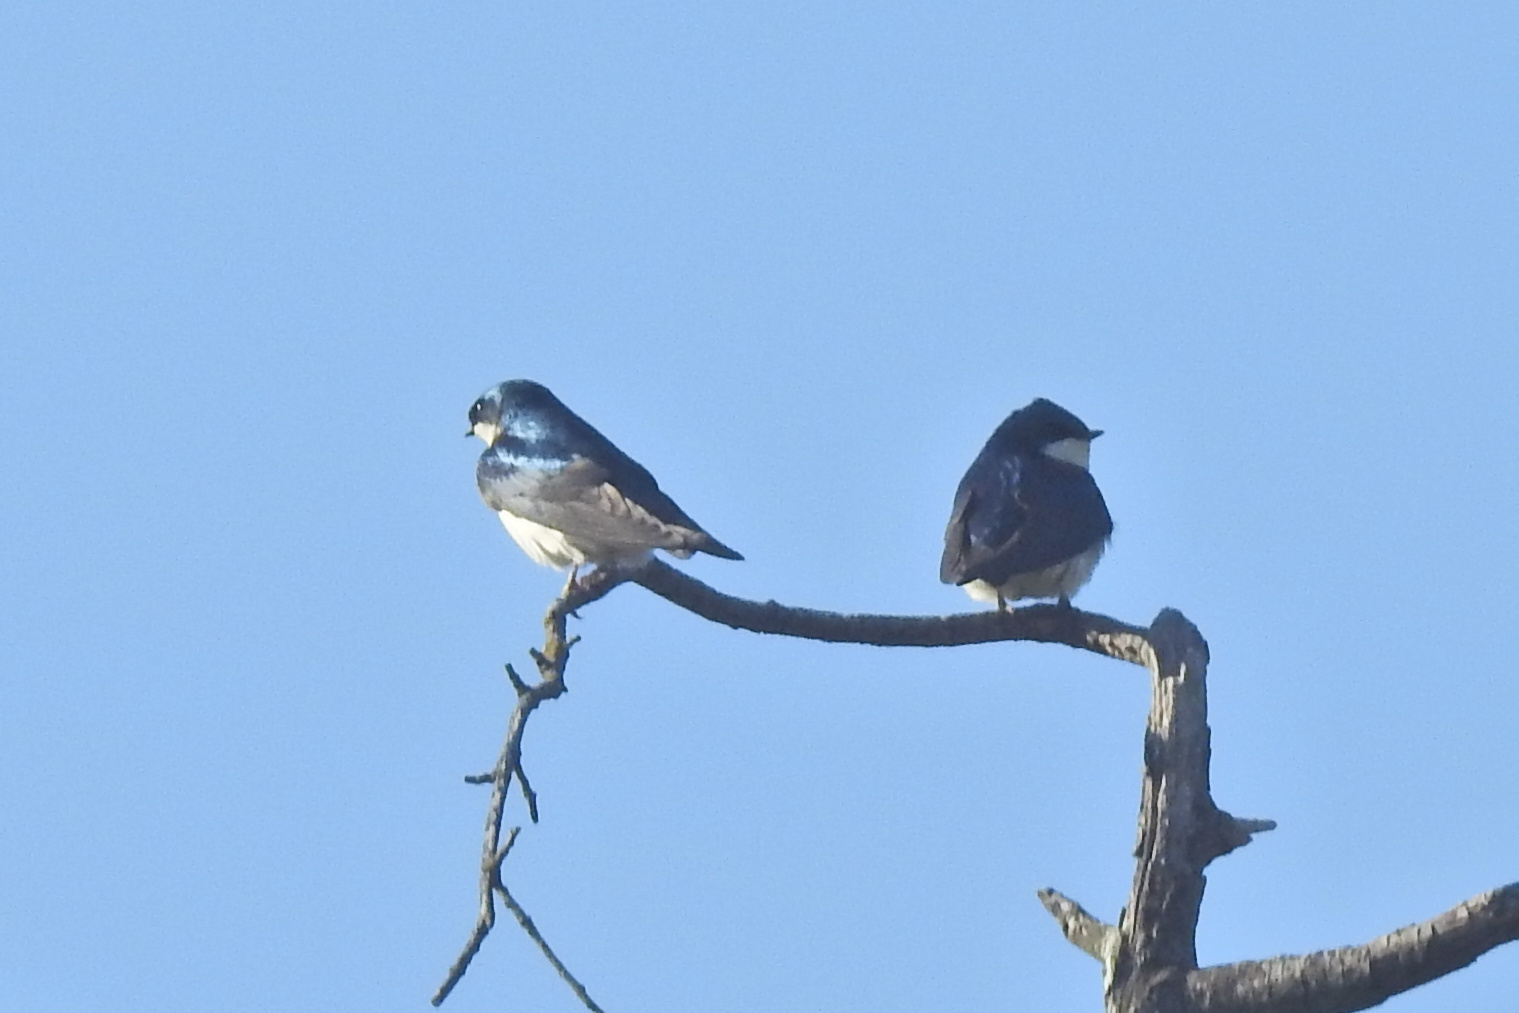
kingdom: Animalia
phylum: Chordata
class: Aves
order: Passeriformes
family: Hirundinidae
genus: Tachycineta
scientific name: Tachycineta bicolor
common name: Tree swallow
